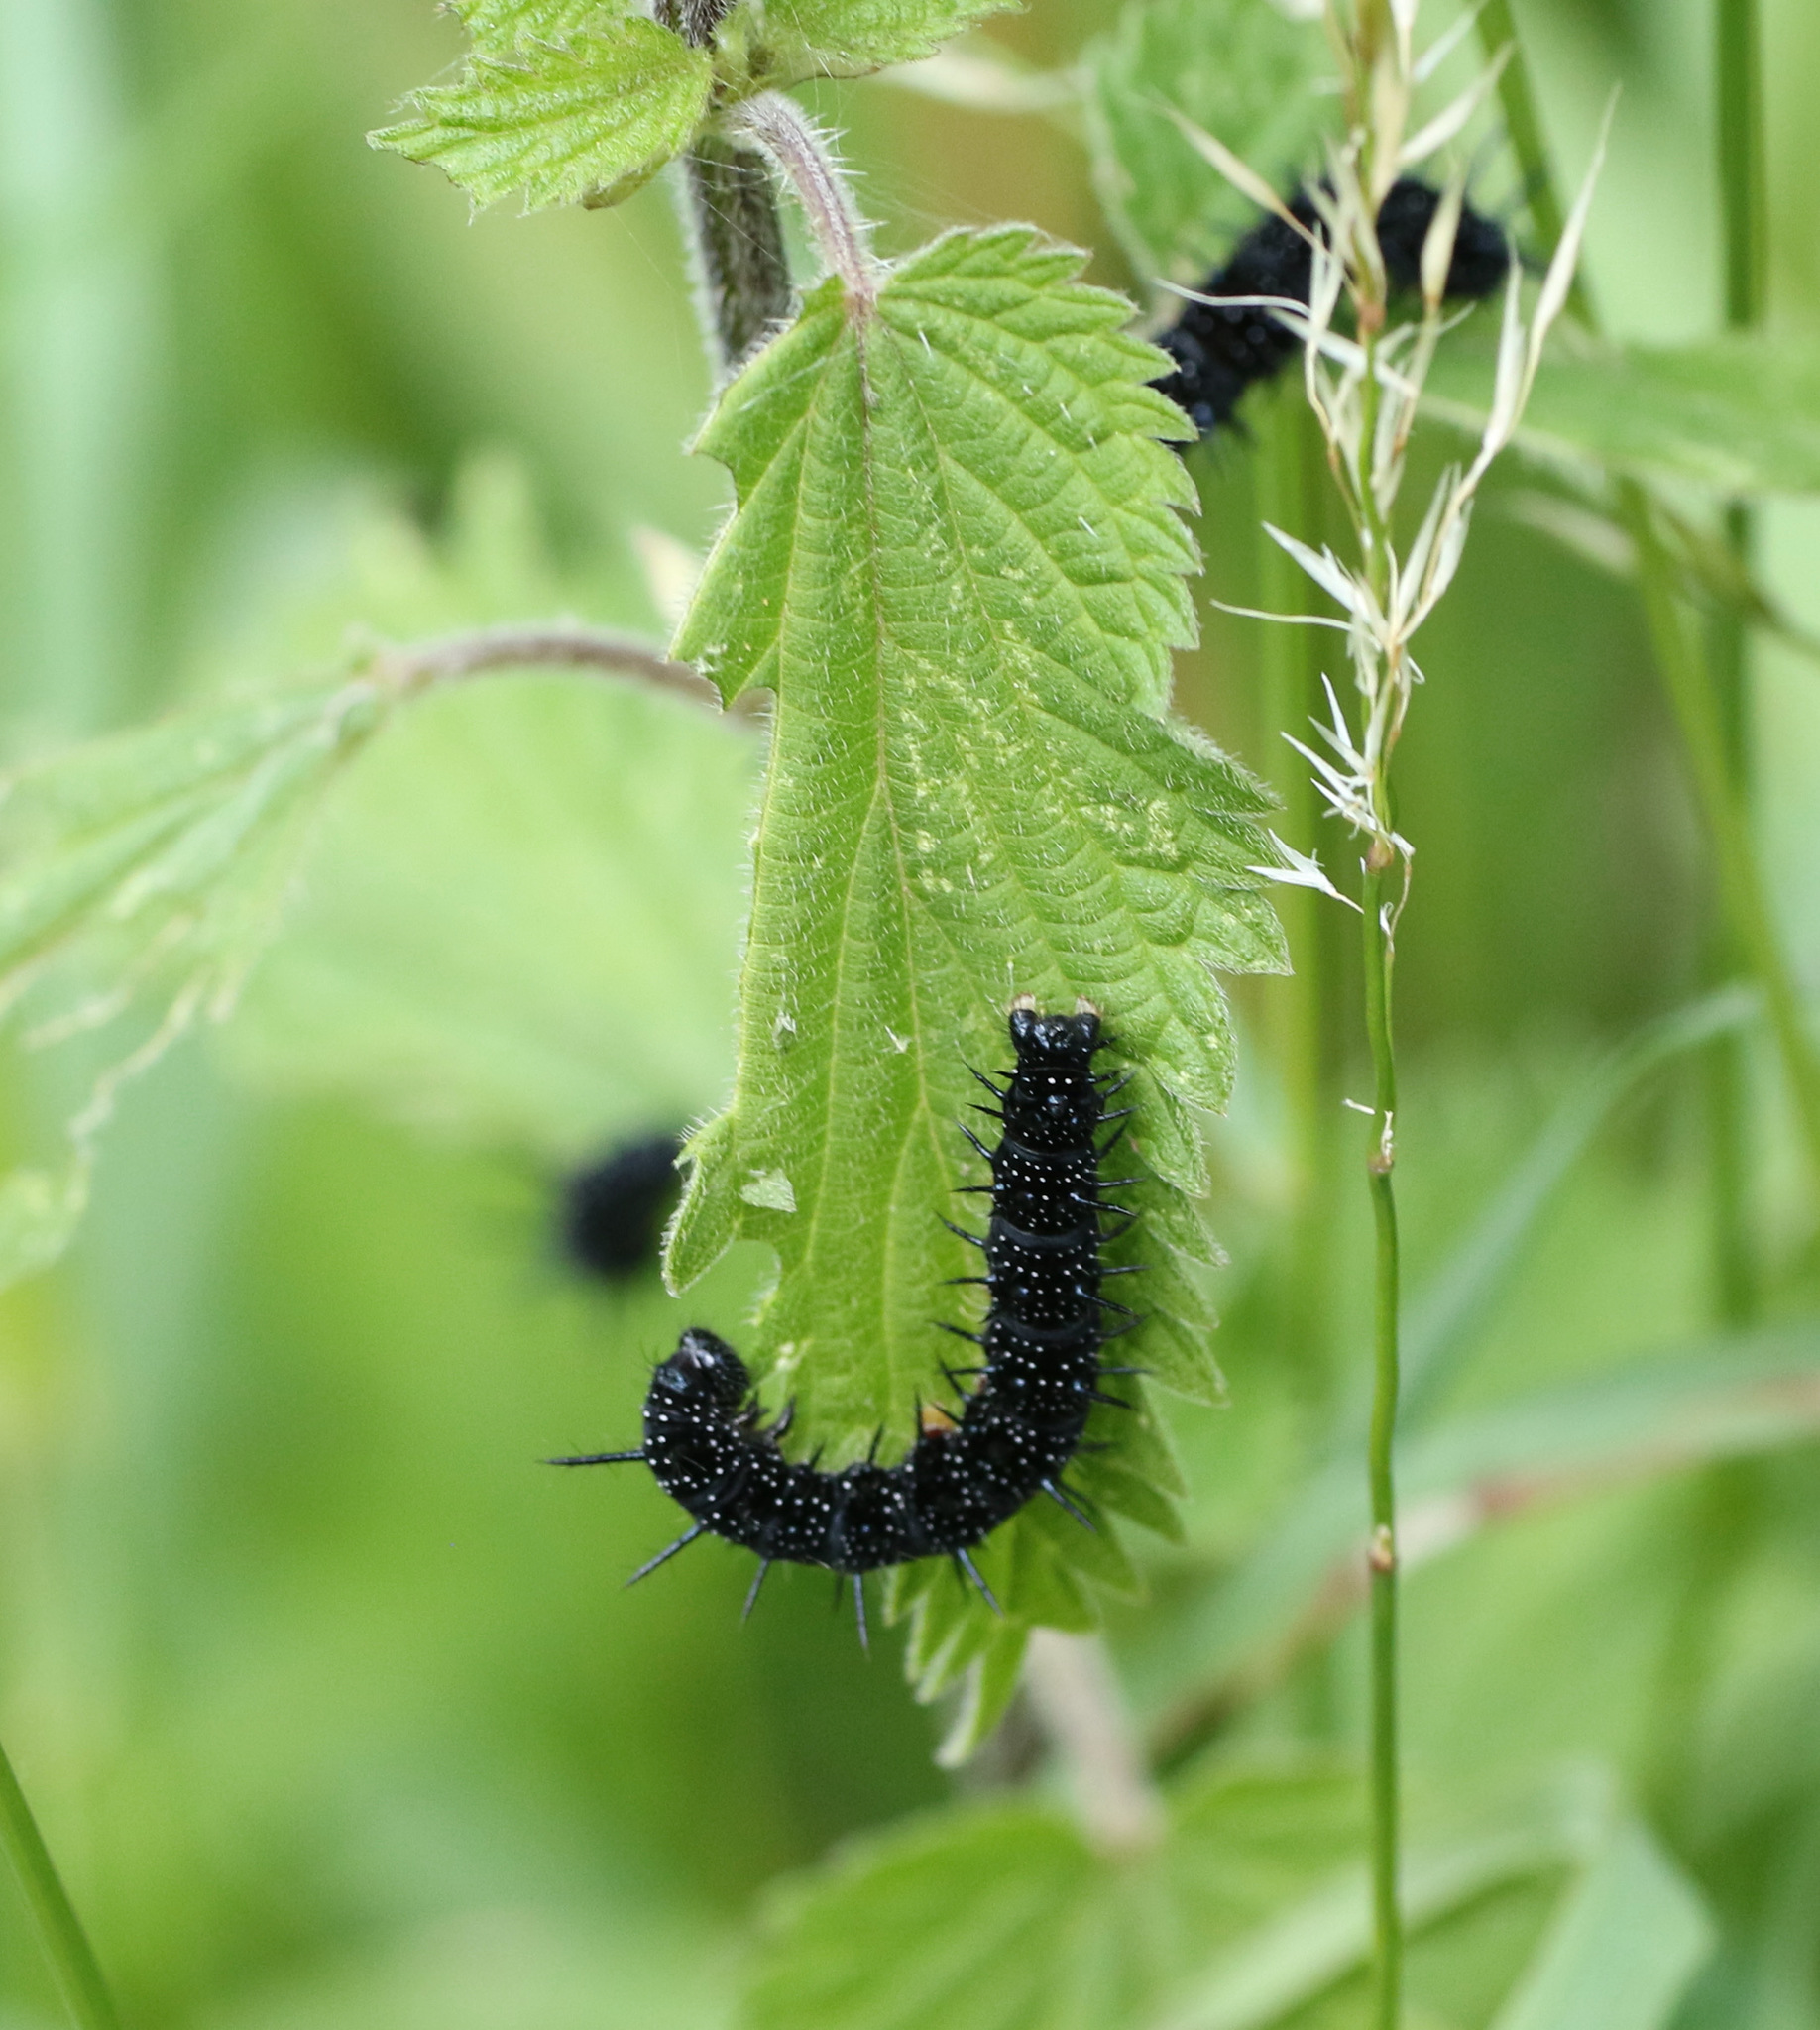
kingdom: Animalia
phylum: Arthropoda
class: Insecta
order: Lepidoptera
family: Nymphalidae
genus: Aglais
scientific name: Aglais io
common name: Peacock
